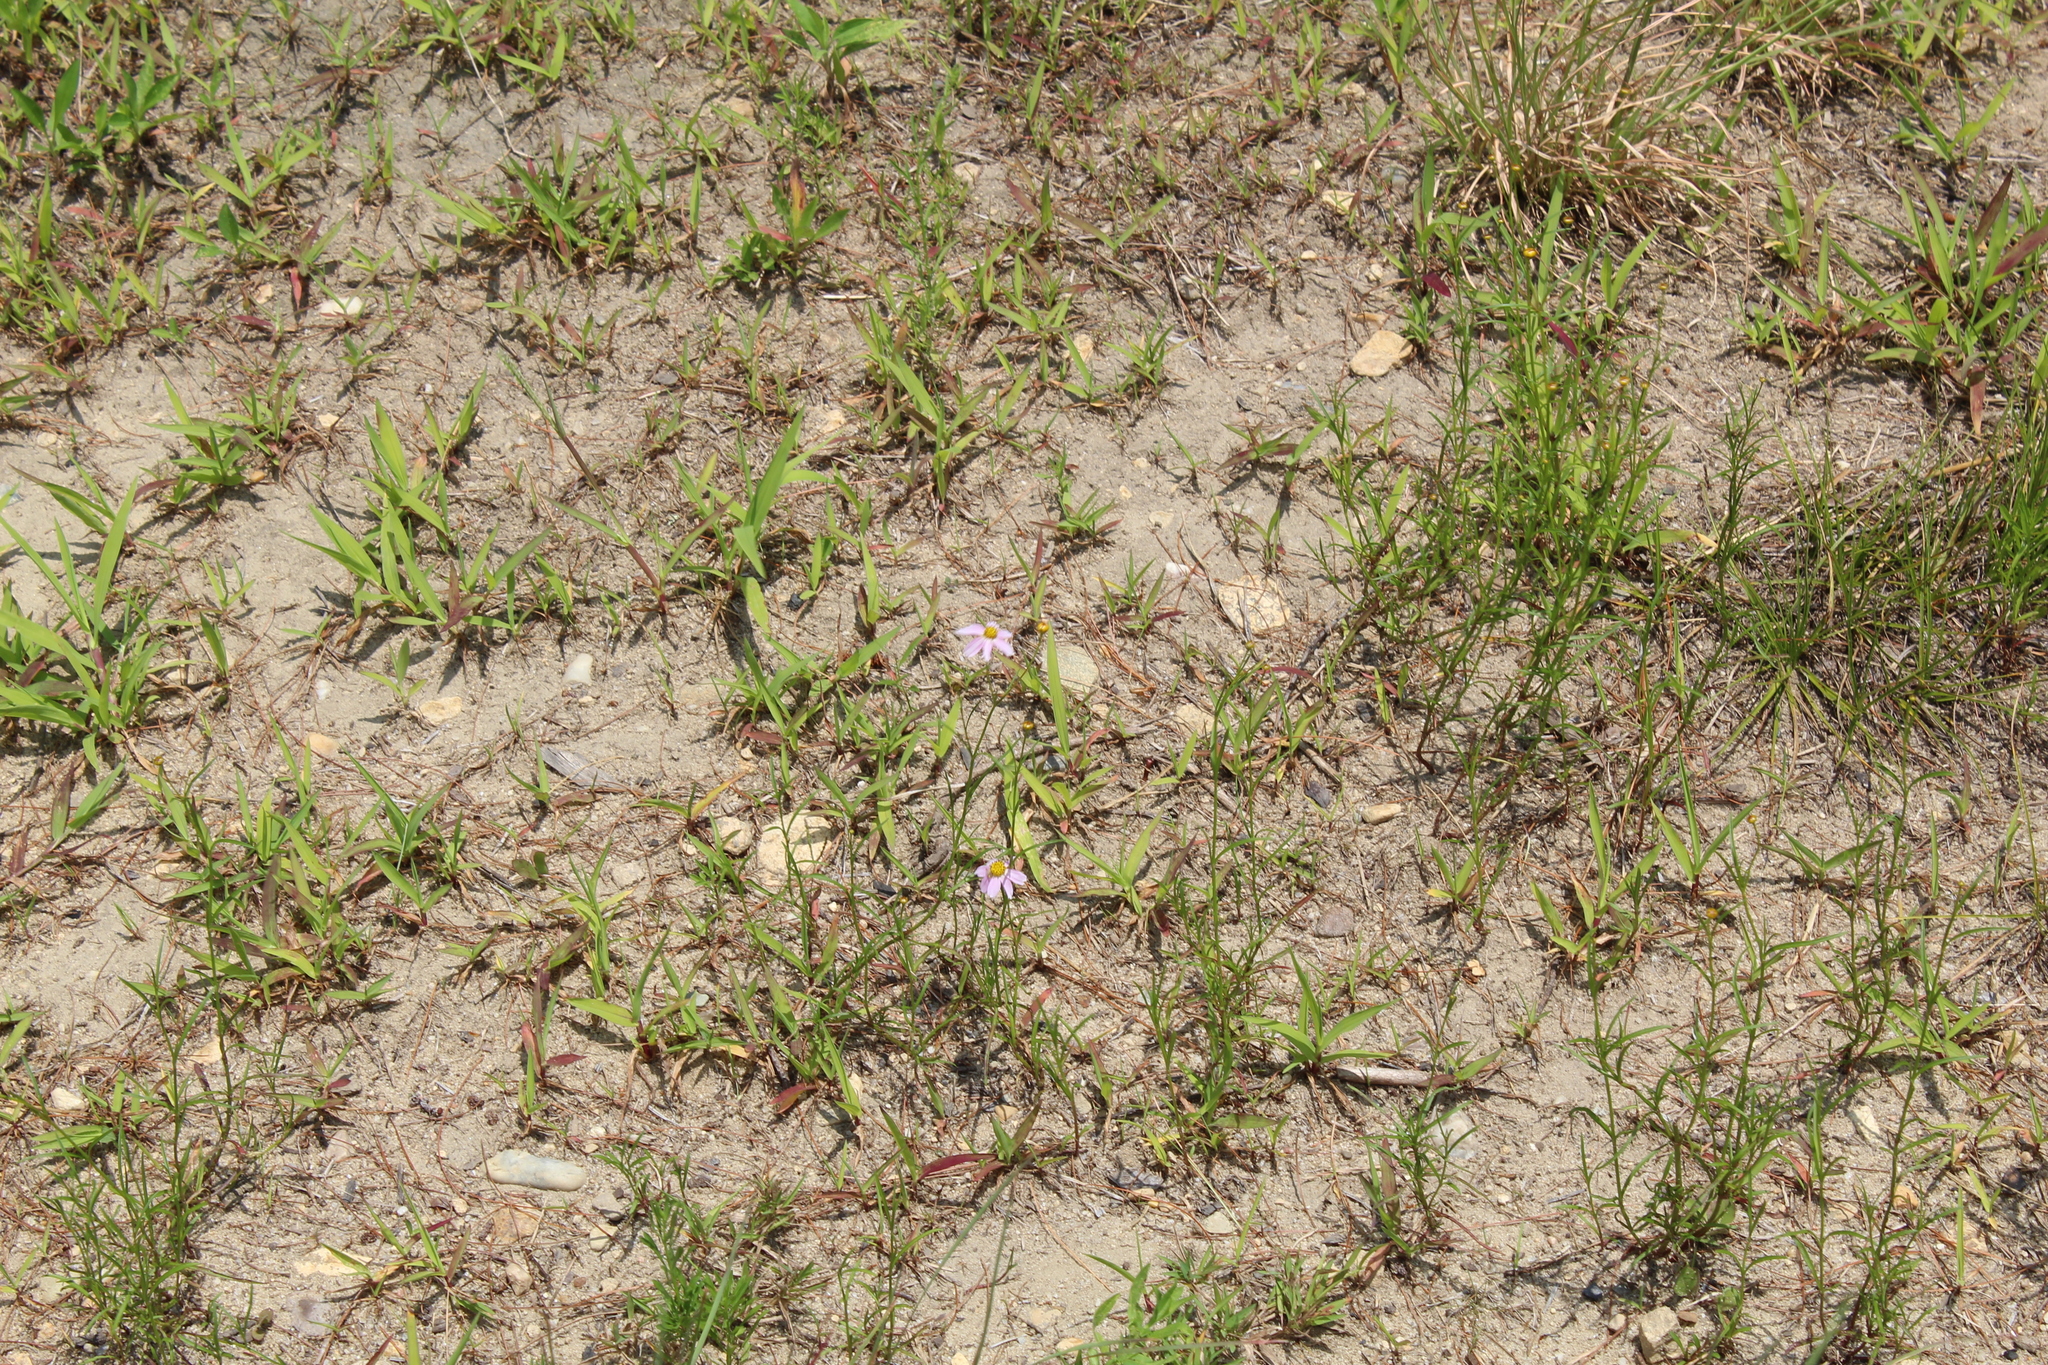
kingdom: Plantae
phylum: Tracheophyta
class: Magnoliopsida
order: Asterales
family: Asteraceae
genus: Coreopsis
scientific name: Coreopsis rosea
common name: Pink coreopsis
